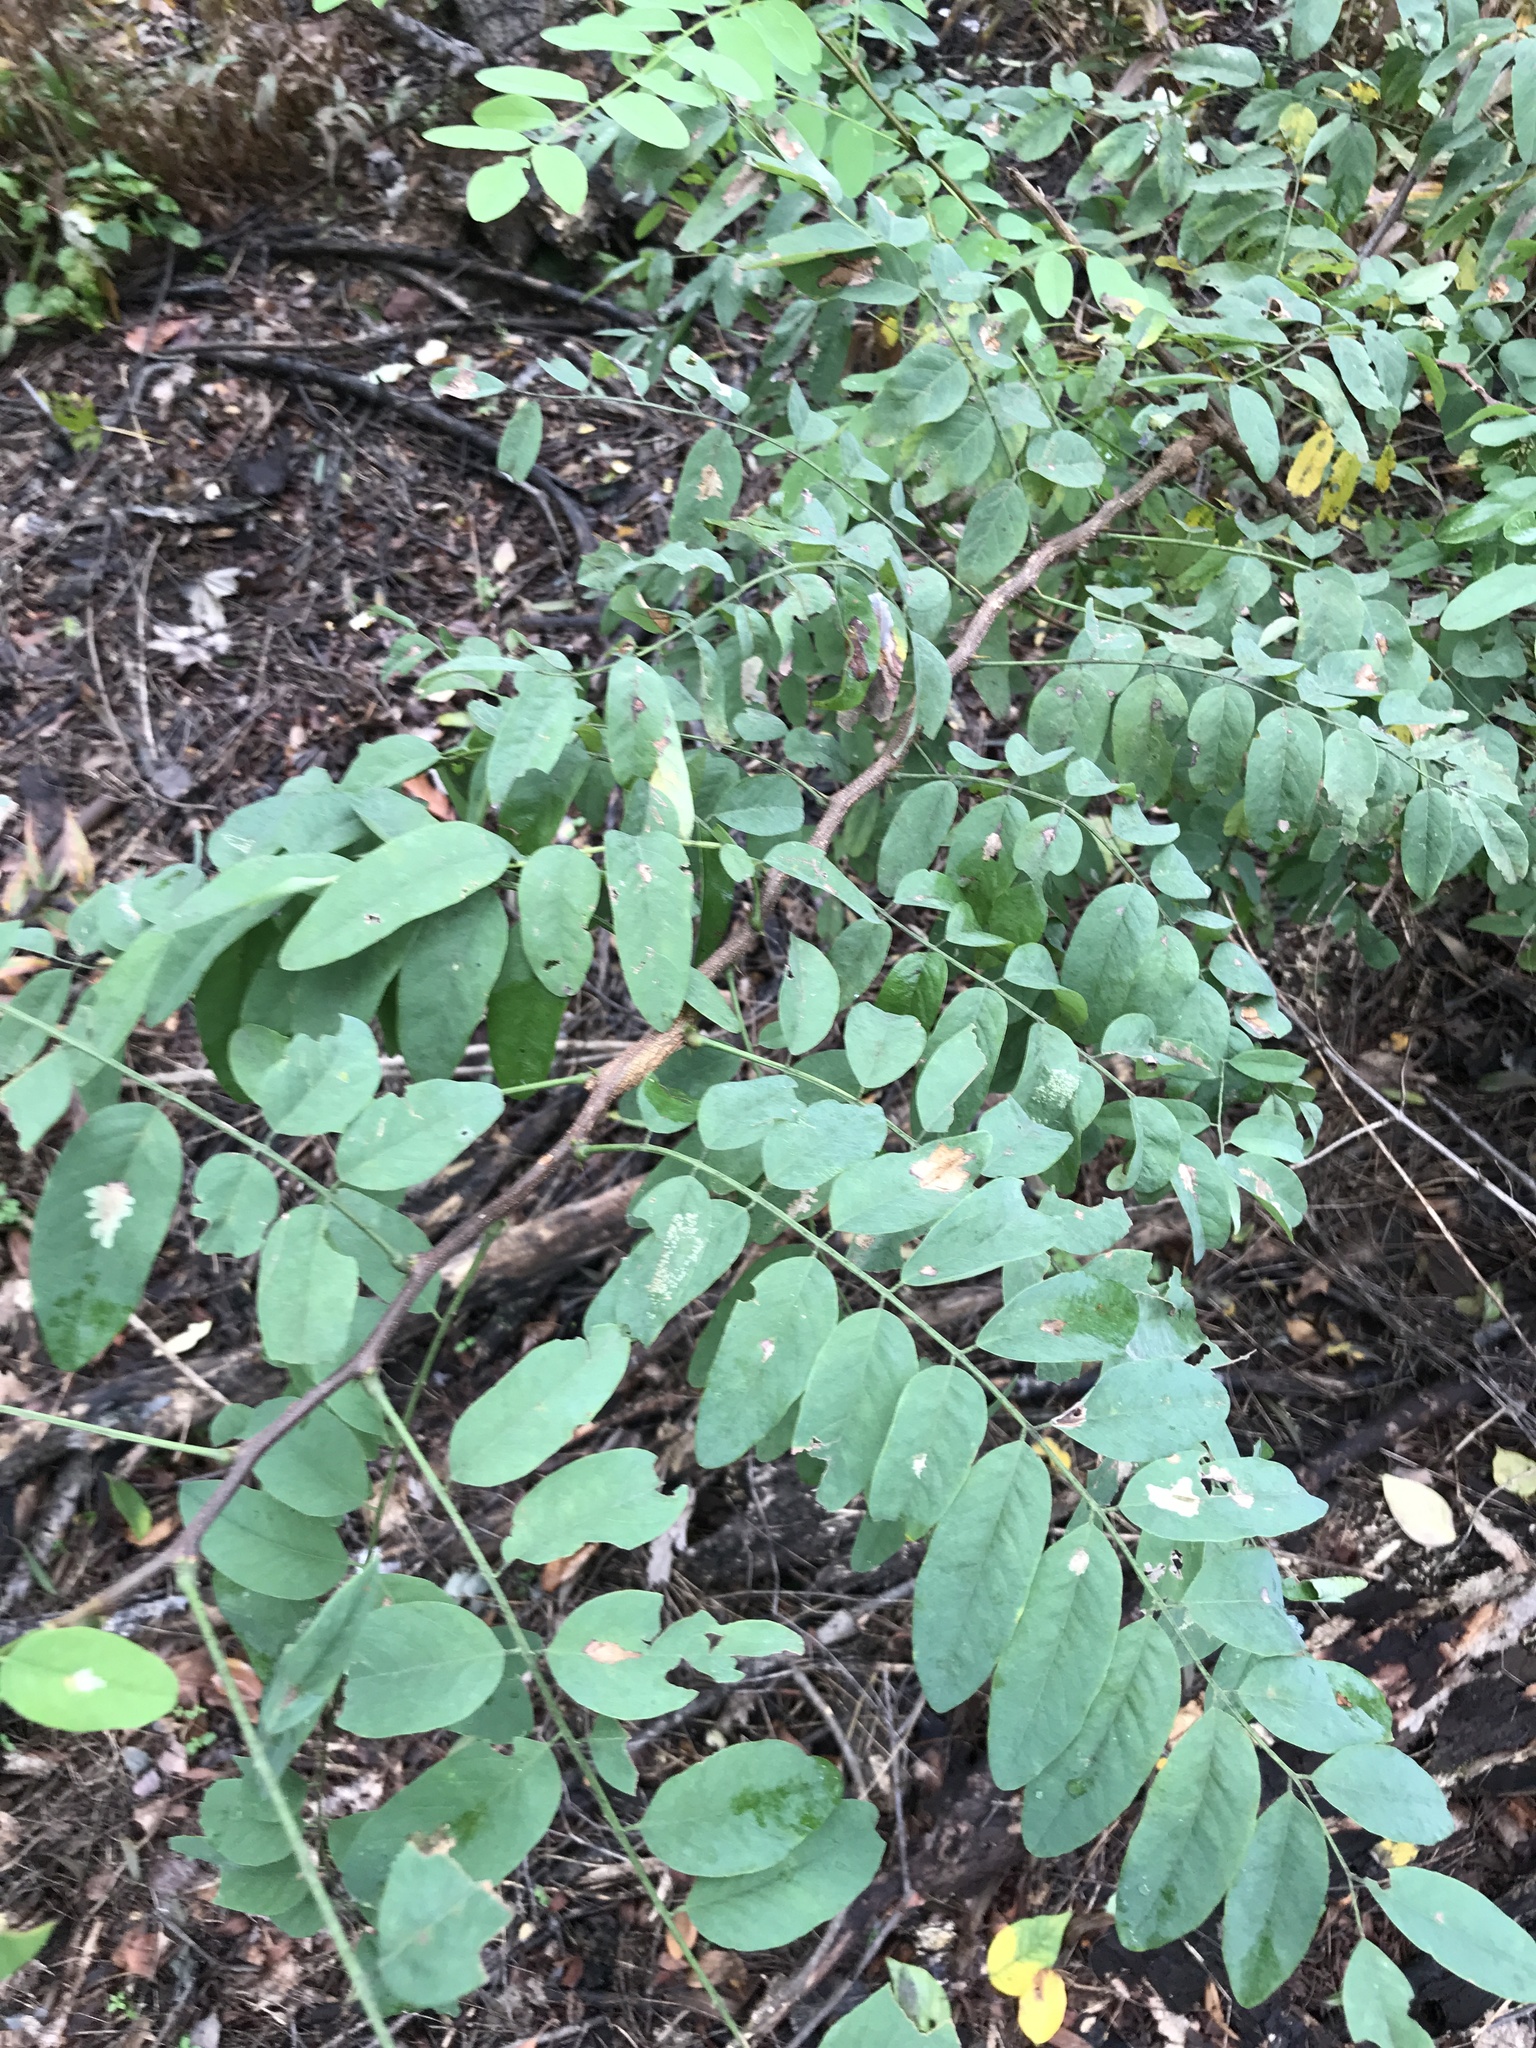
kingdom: Plantae
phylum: Tracheophyta
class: Magnoliopsida
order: Fabales
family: Fabaceae
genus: Robinia
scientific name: Robinia pseudoacacia
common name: Black locust
